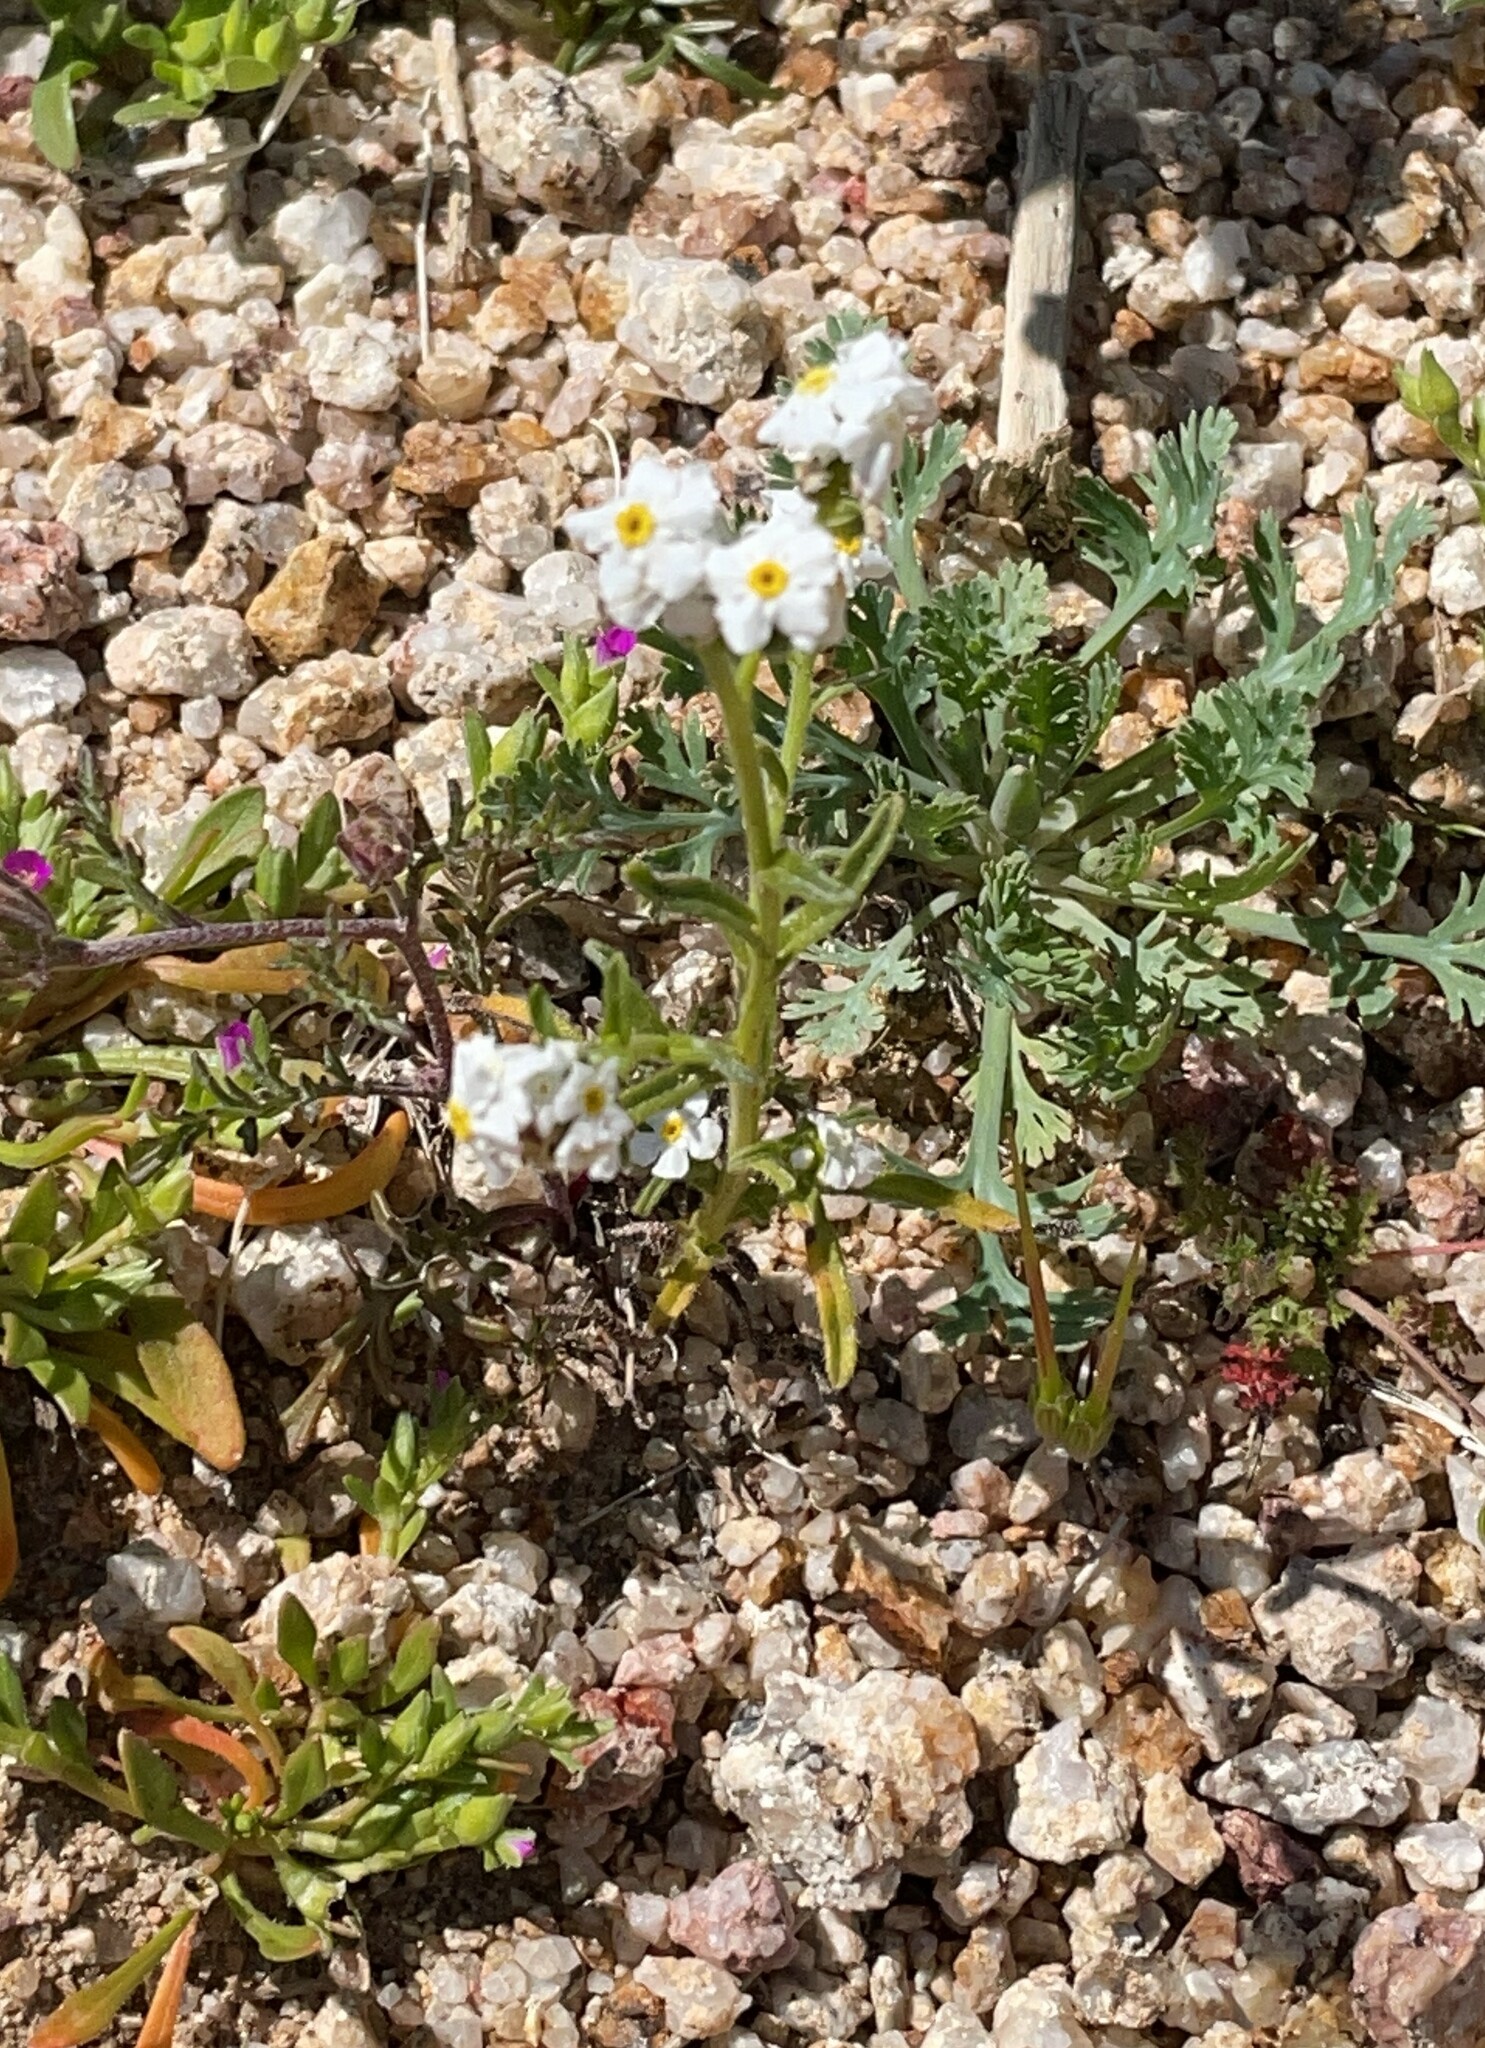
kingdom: Plantae
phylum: Tracheophyta
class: Magnoliopsida
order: Boraginales
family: Boraginaceae
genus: Cryptantha
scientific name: Cryptantha utahensis
